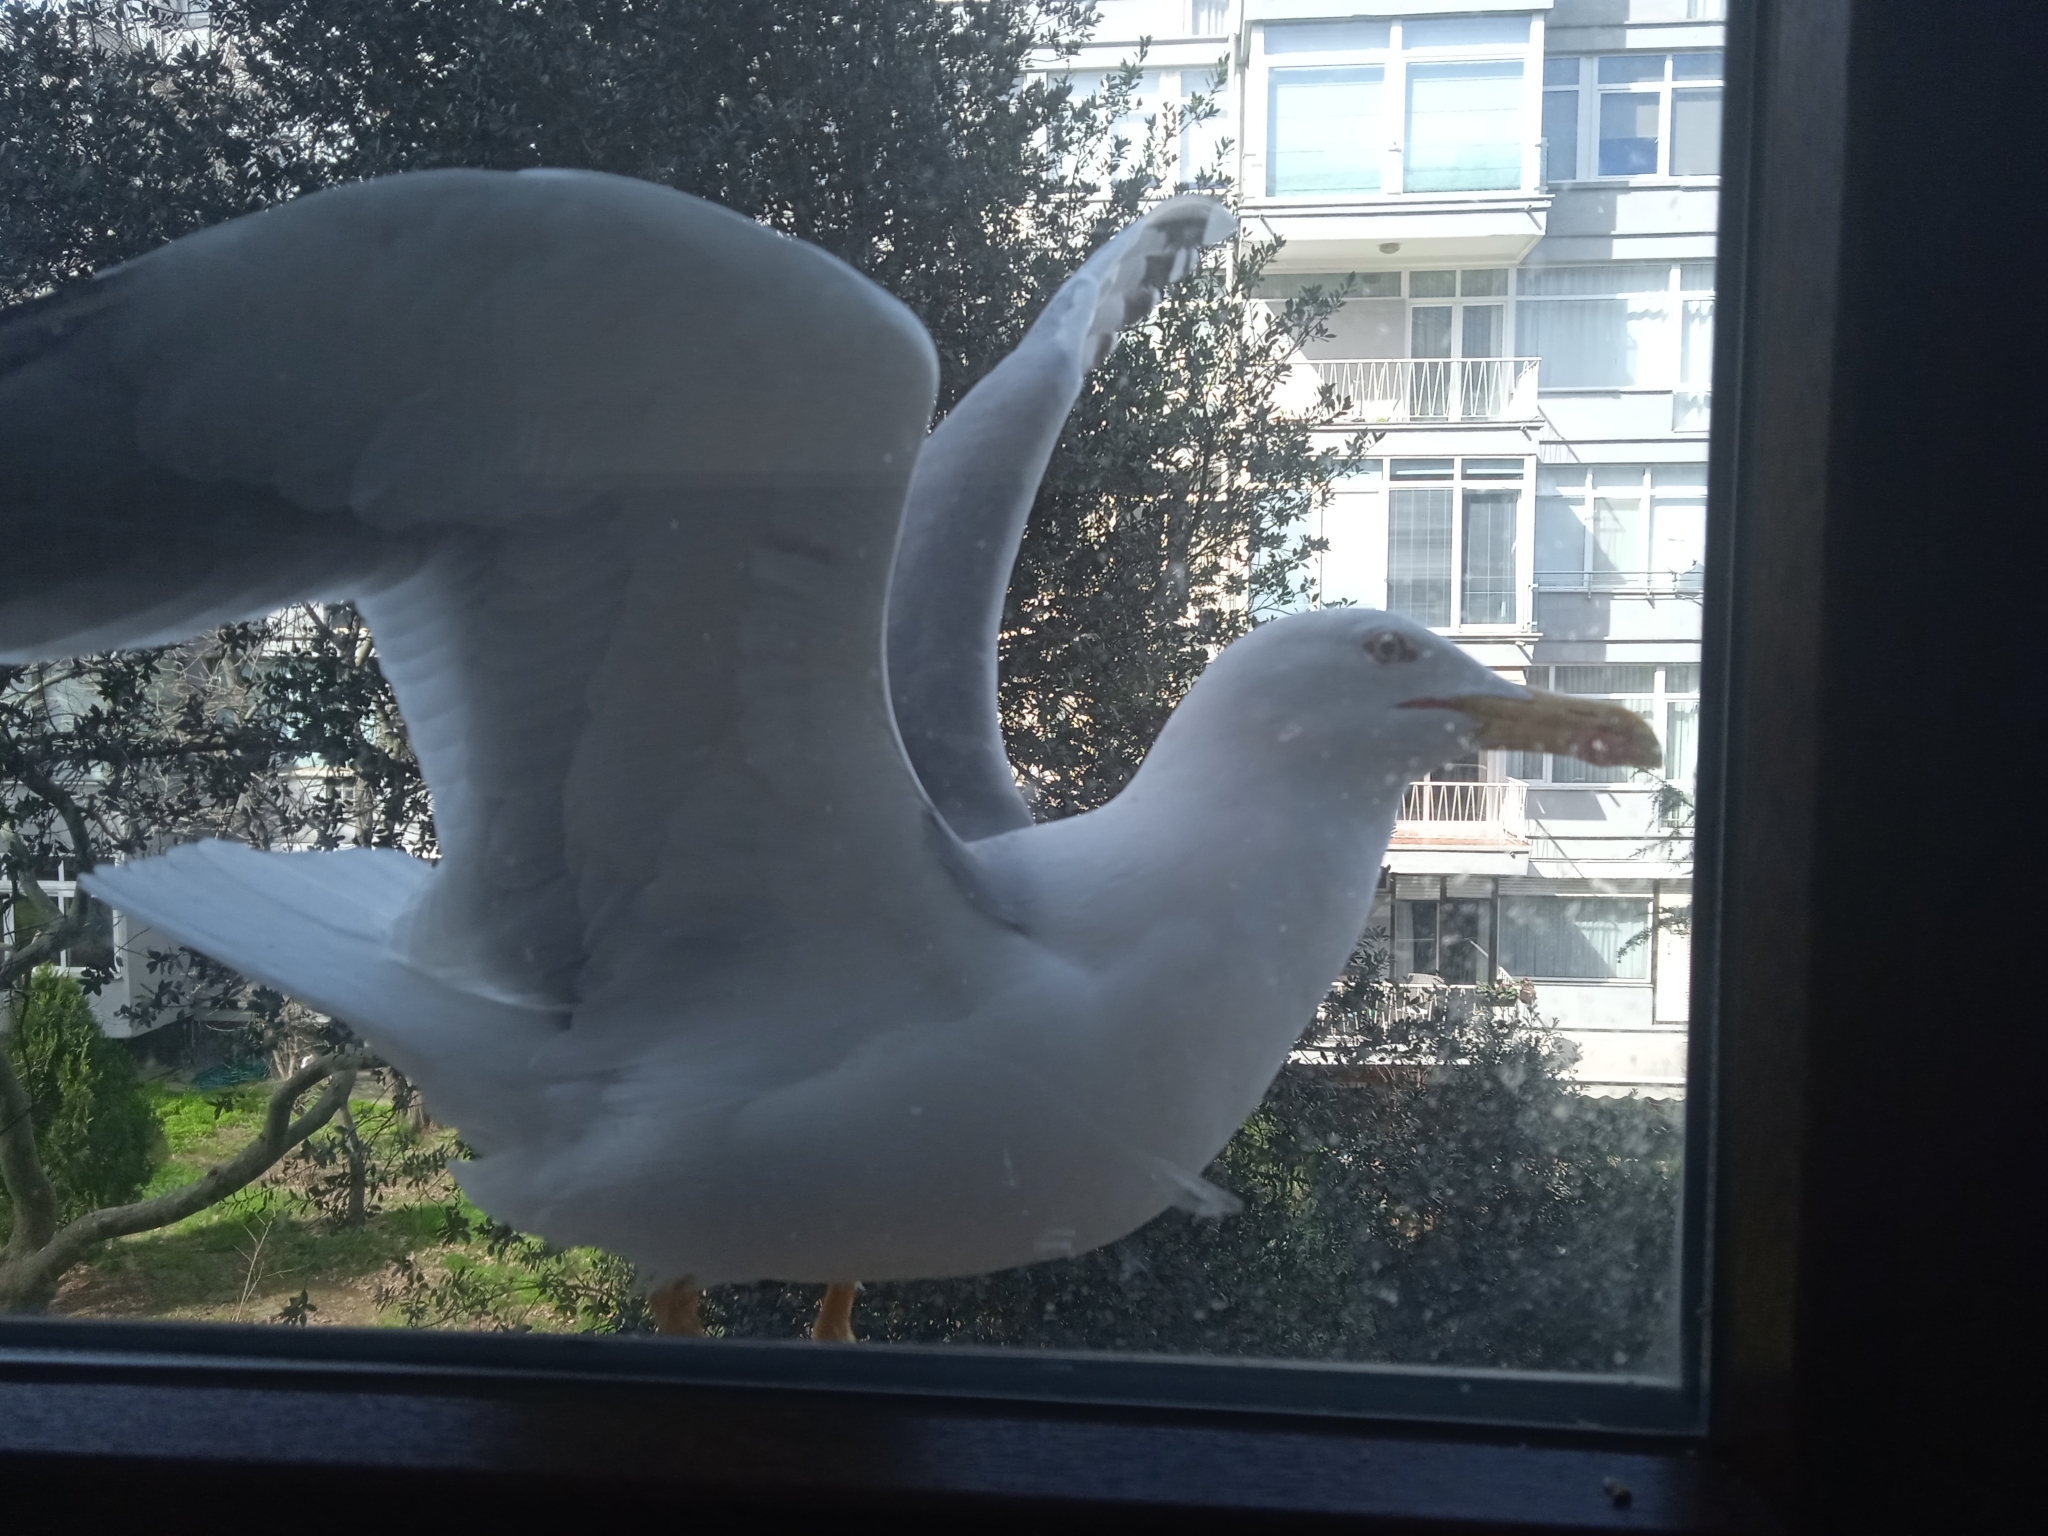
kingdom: Animalia
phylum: Chordata
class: Aves
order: Charadriiformes
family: Laridae
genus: Larus
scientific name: Larus michahellis
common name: Yellow-legged gull
